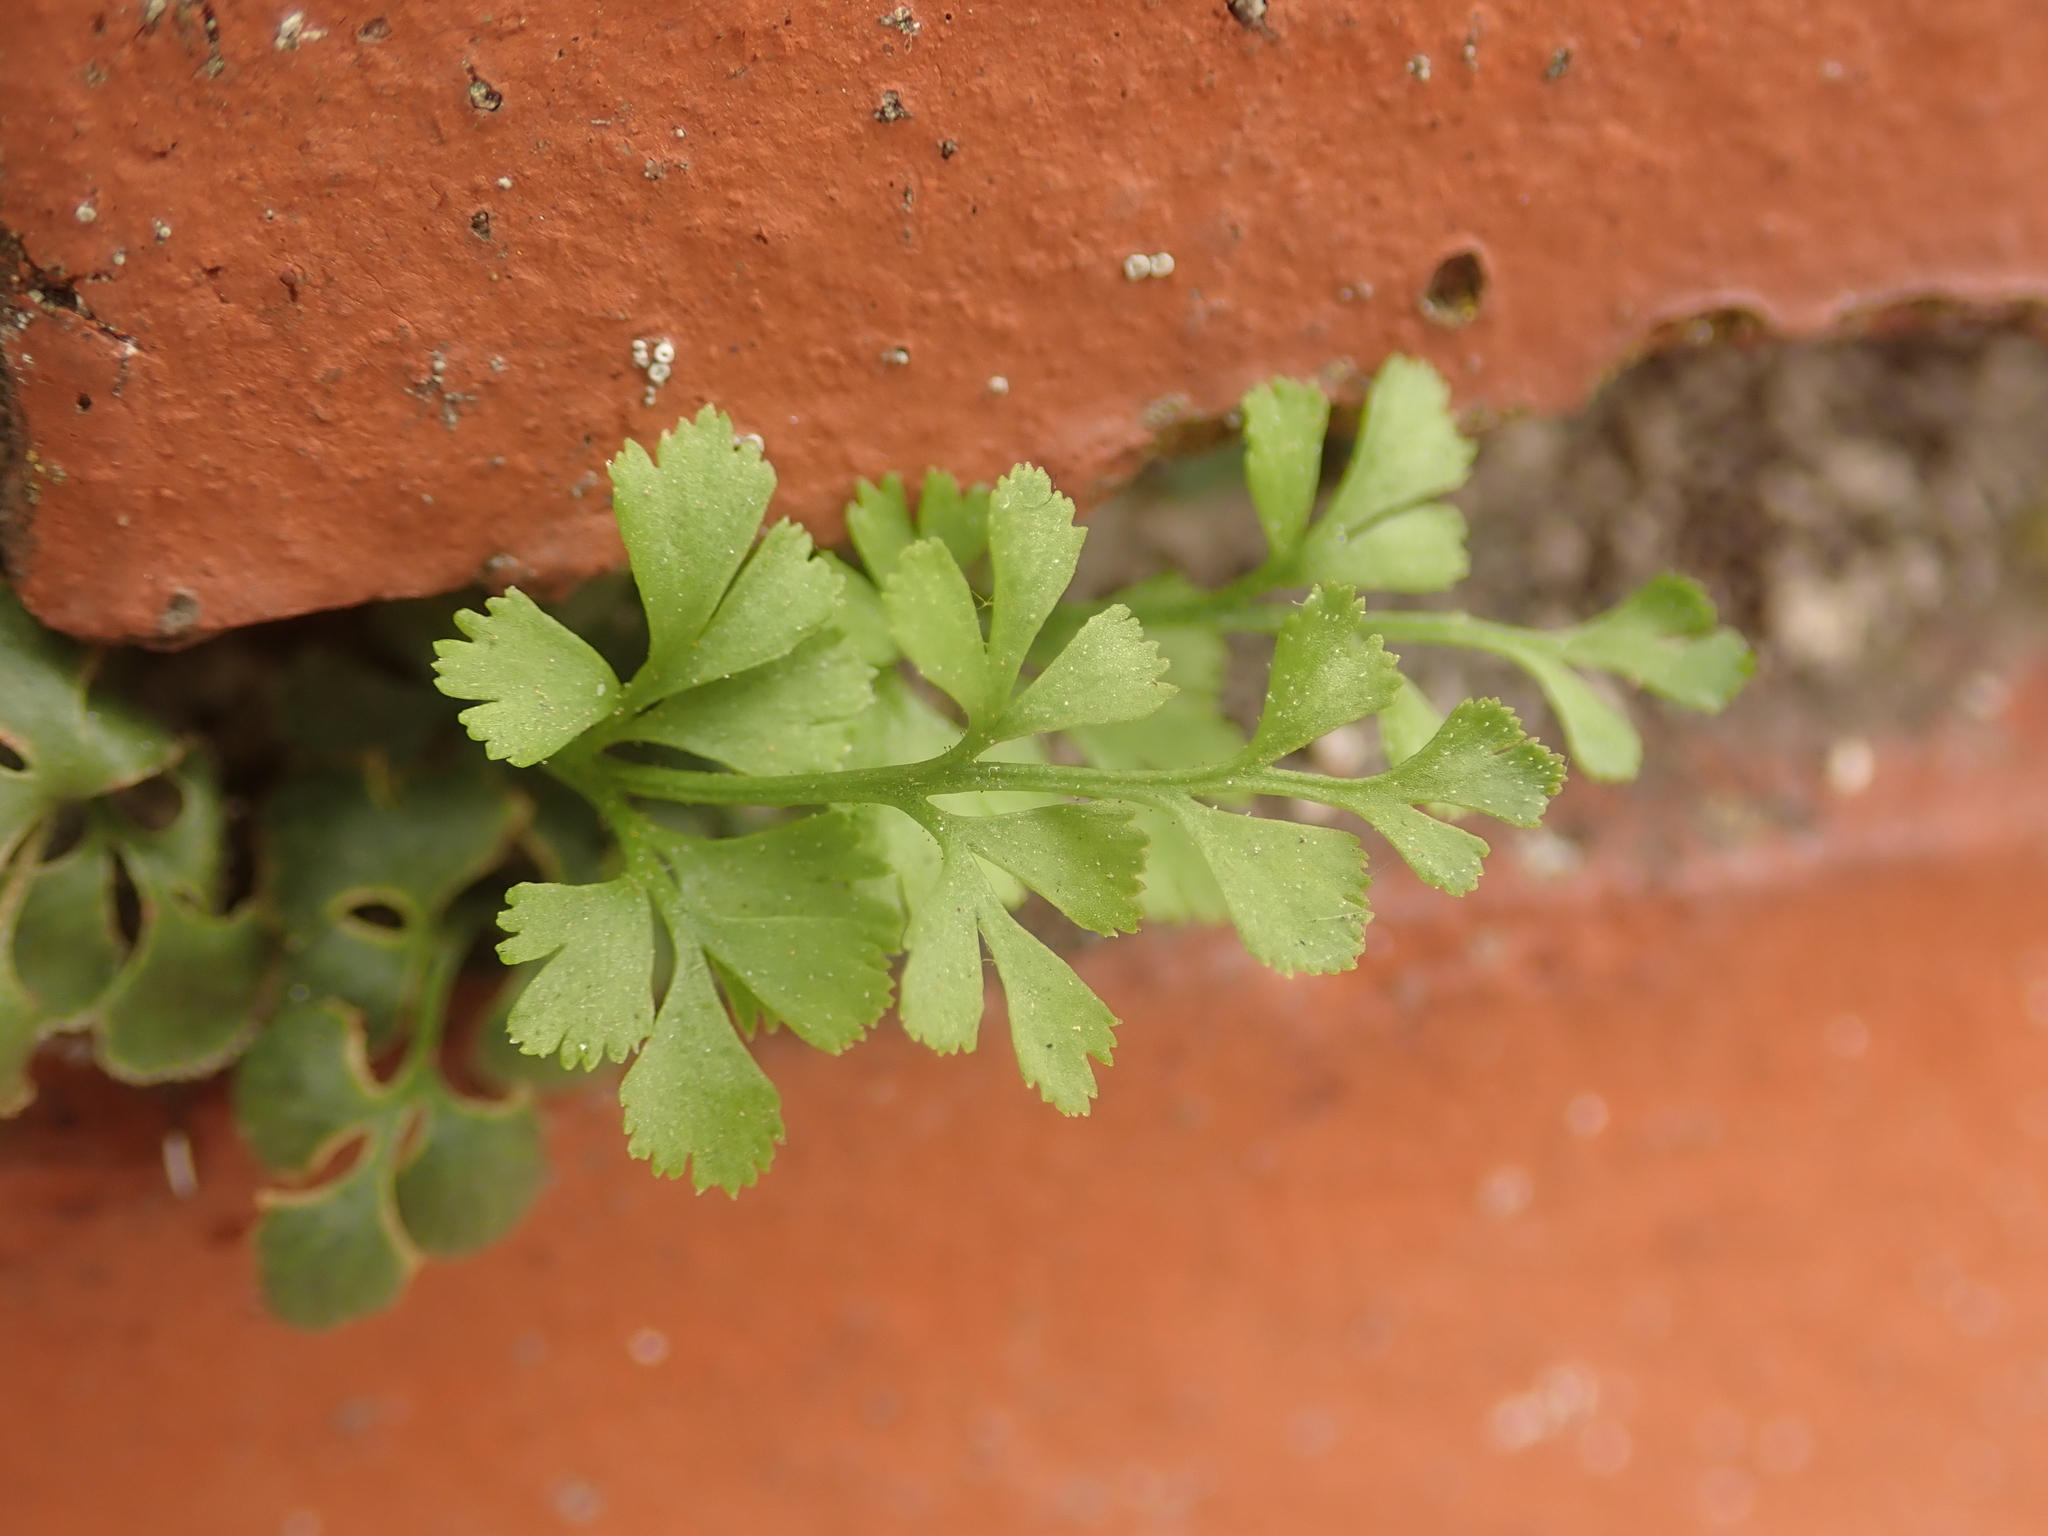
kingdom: Plantae
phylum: Tracheophyta
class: Polypodiopsida
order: Polypodiales
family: Aspleniaceae
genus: Asplenium
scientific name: Asplenium ruta-muraria
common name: Wall-rue
